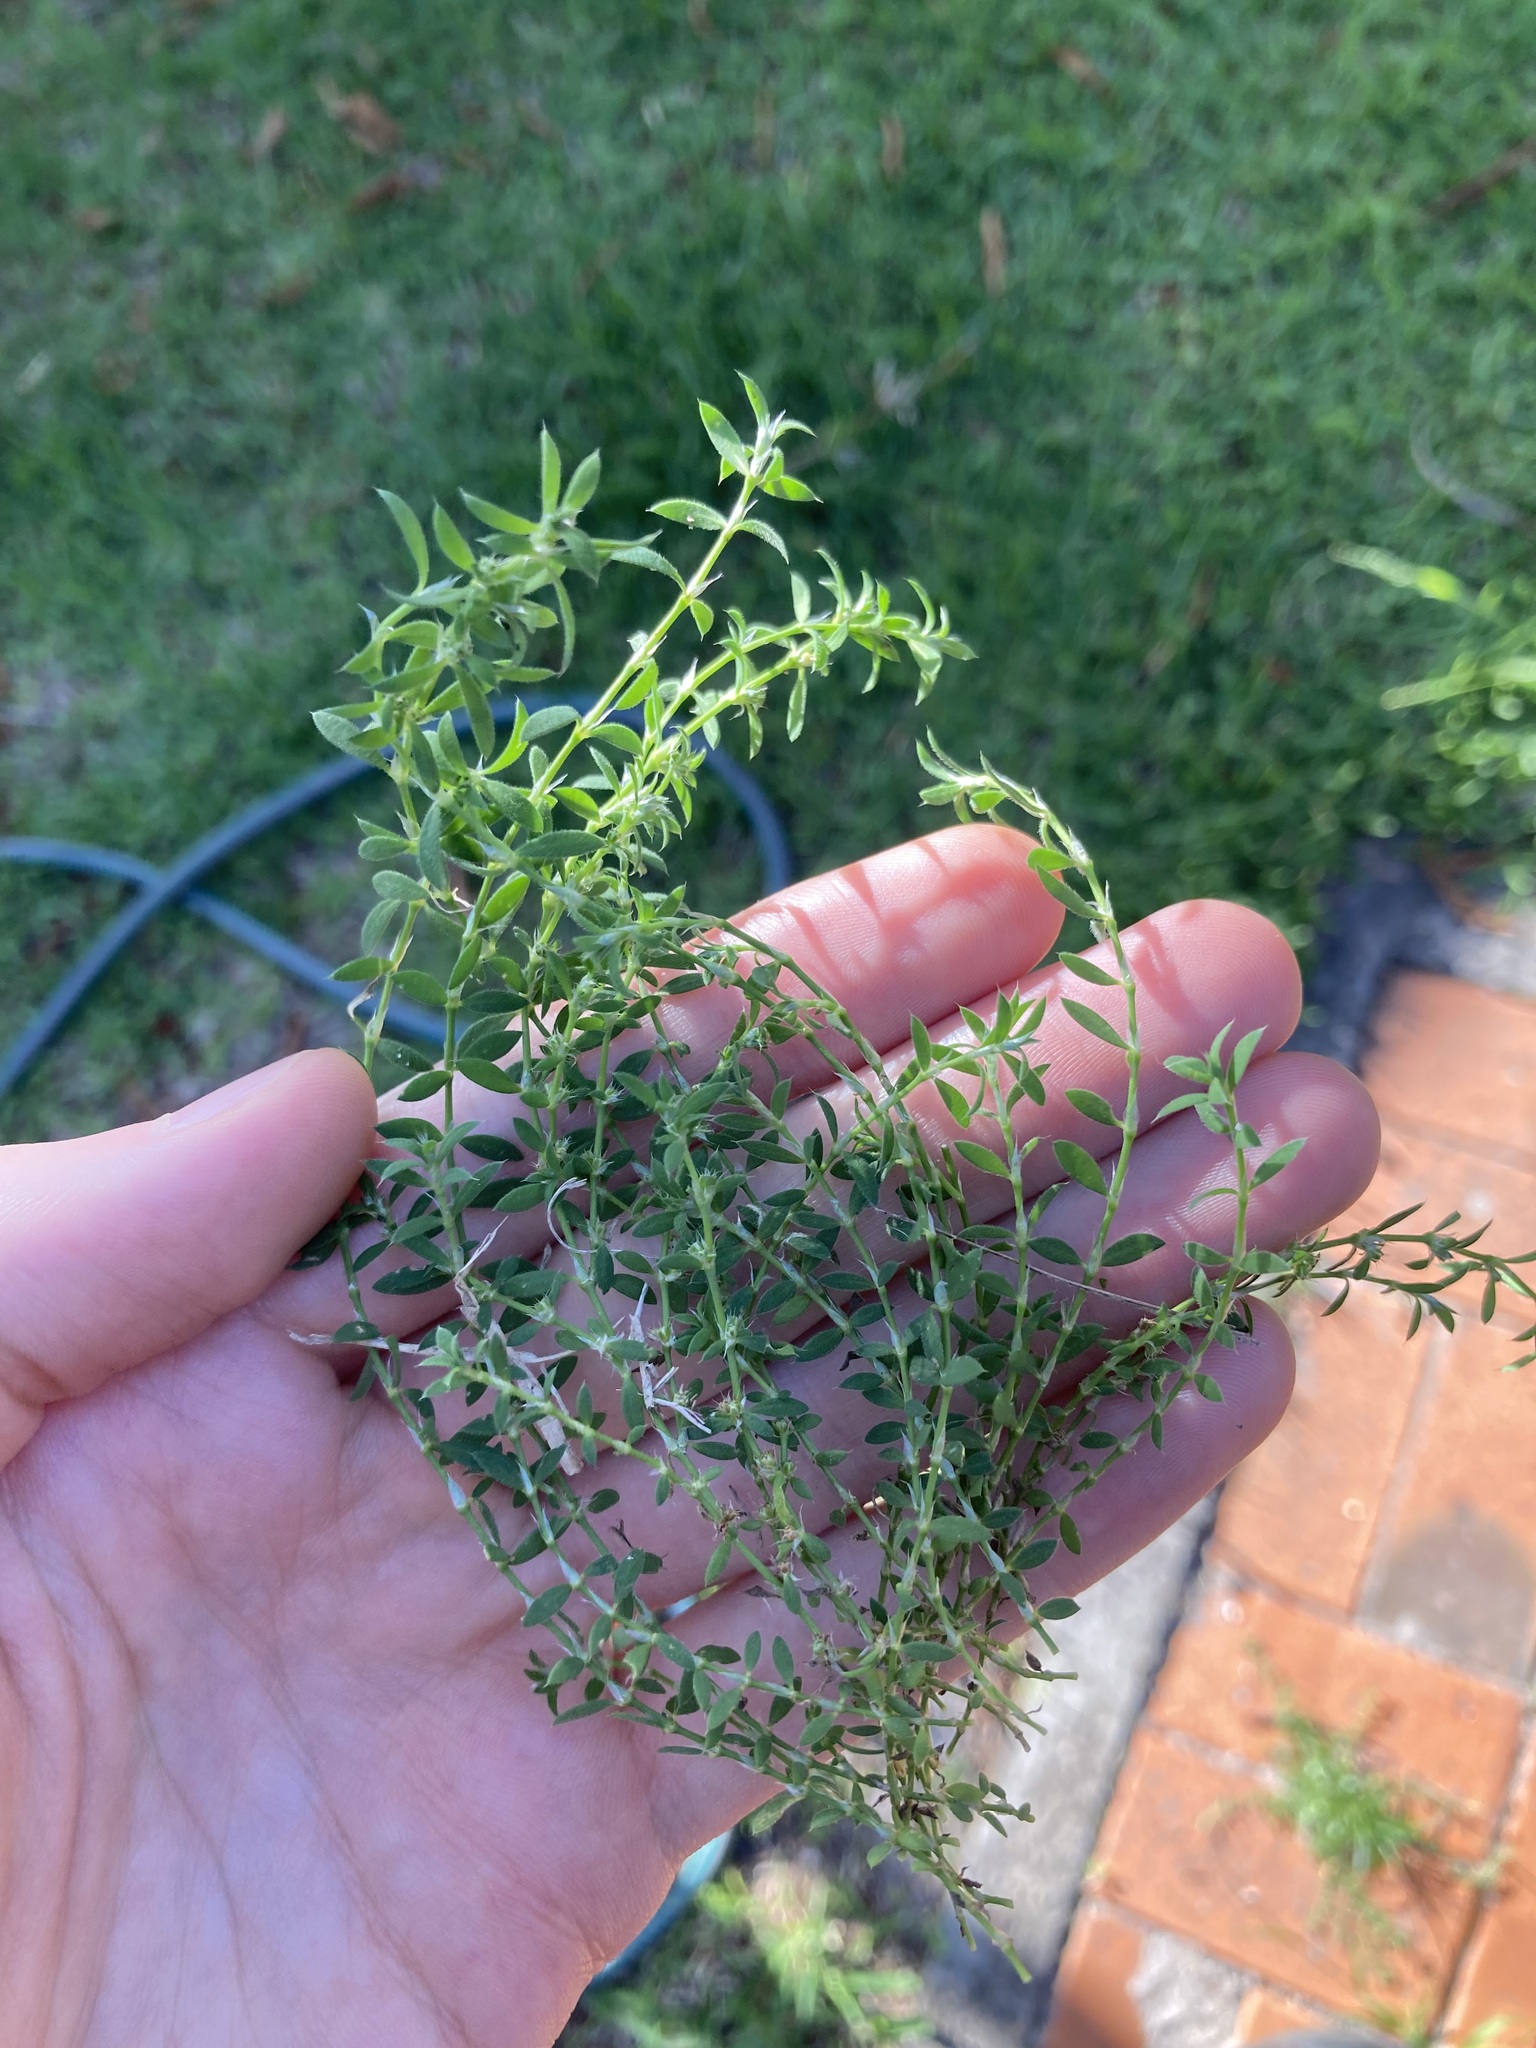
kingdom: Plantae
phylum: Tracheophyta
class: Magnoliopsida
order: Caryophyllales
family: Caryophyllaceae
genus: Paronychia
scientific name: Paronychia brasiliana
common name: Brazilian whitlow
